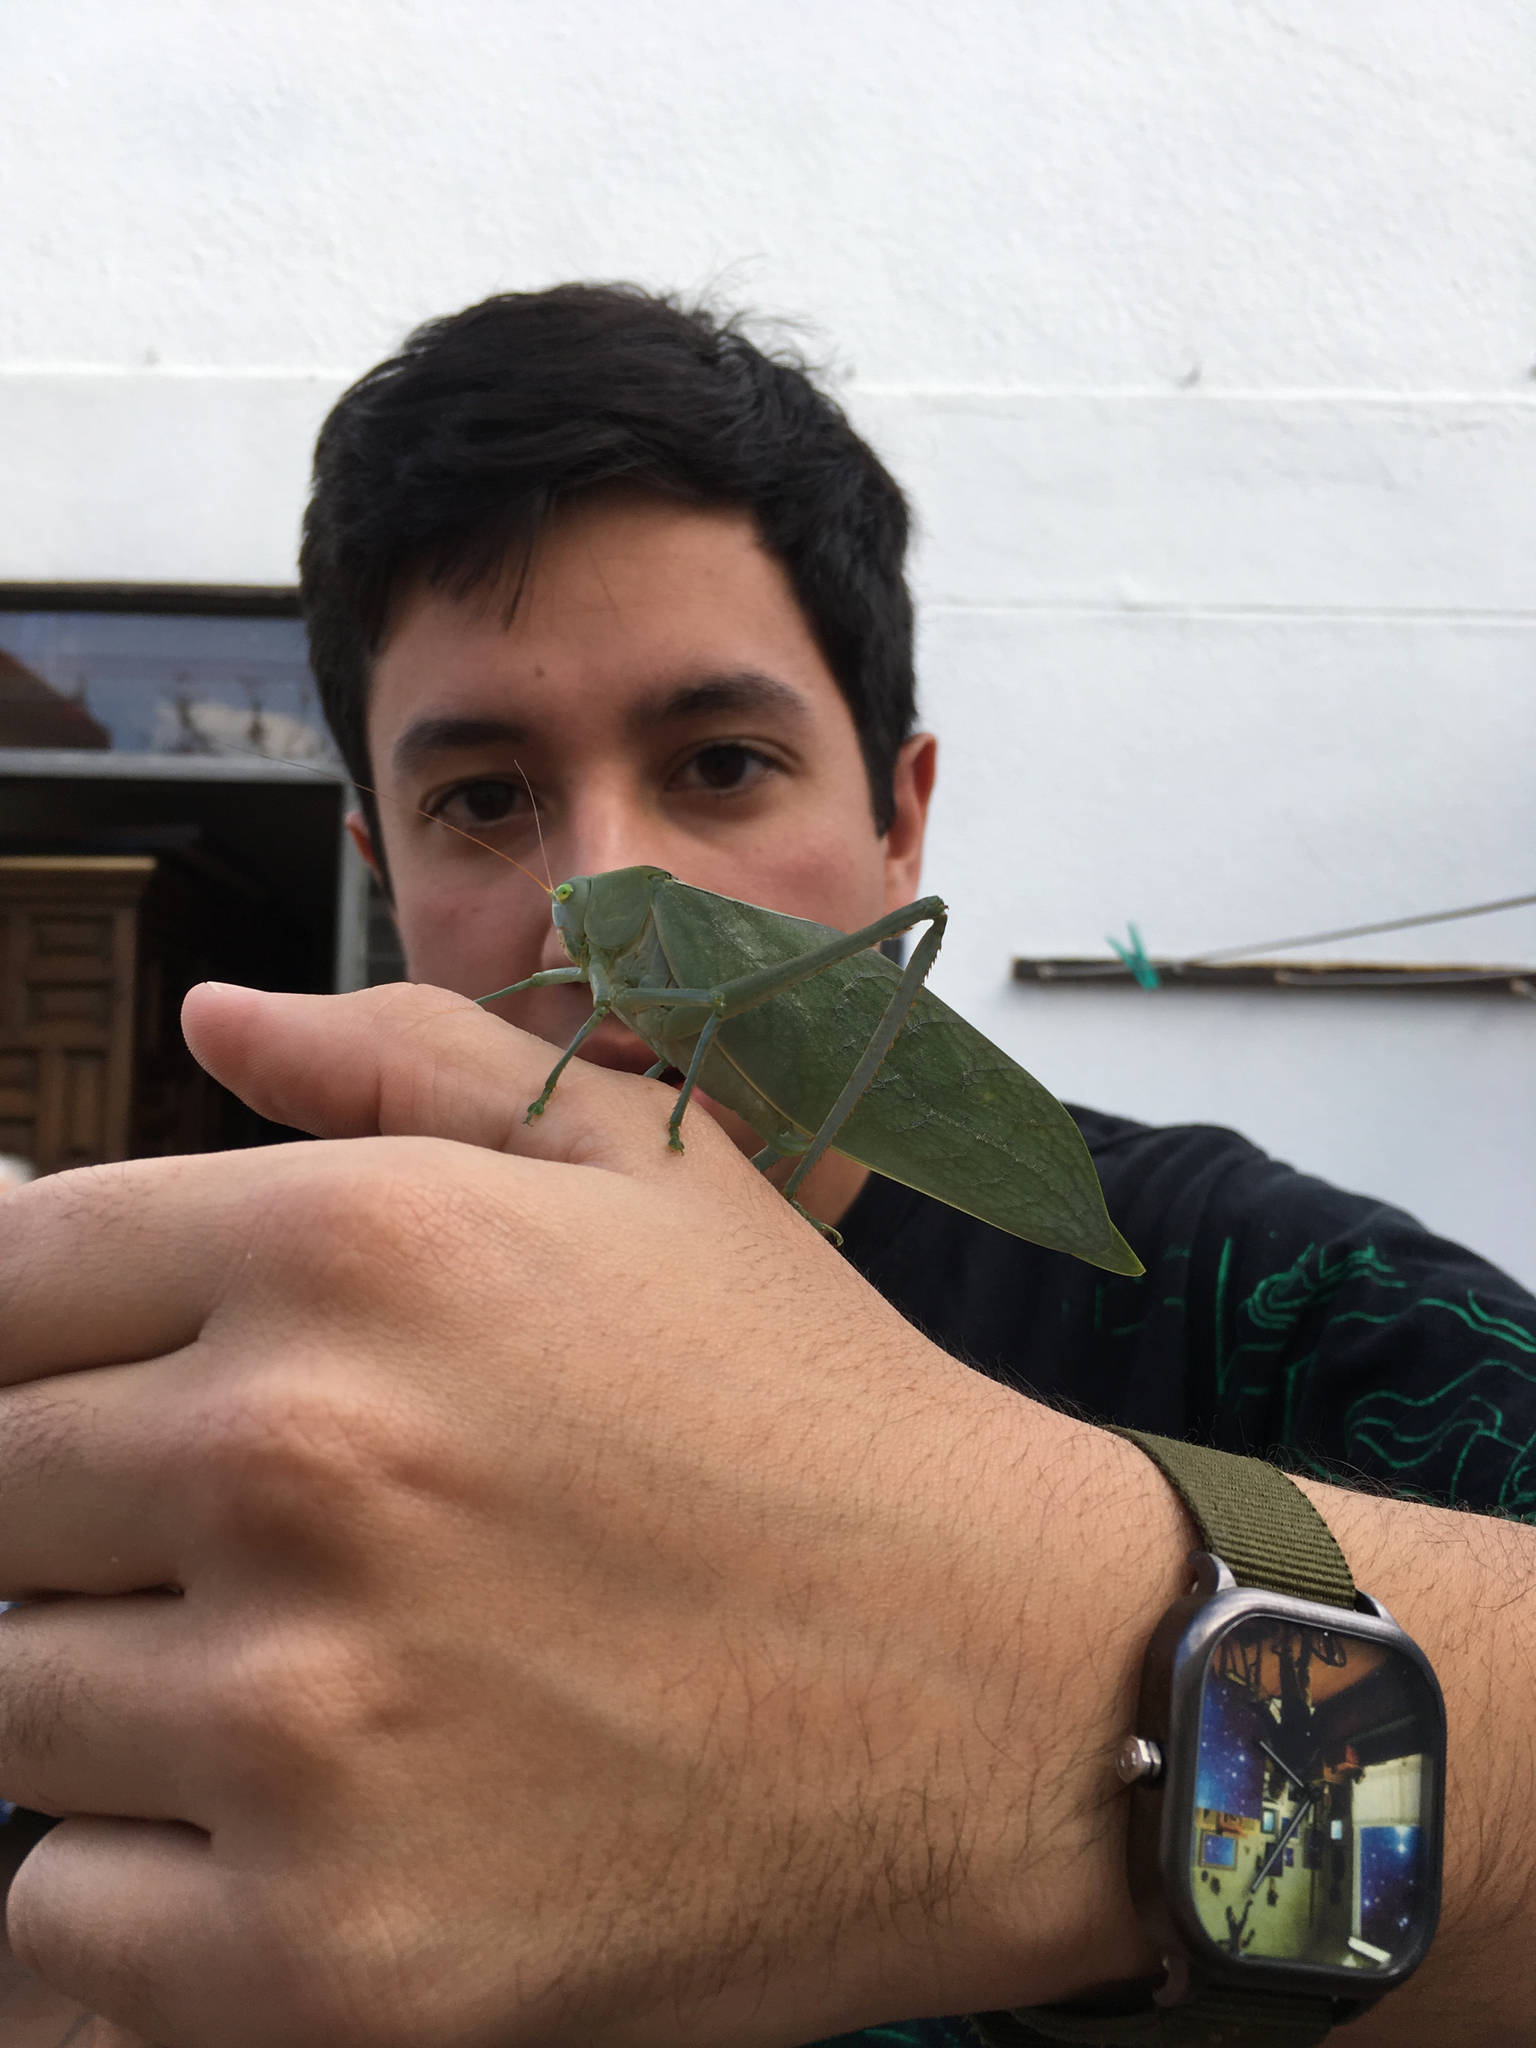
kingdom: Animalia
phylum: Arthropoda
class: Insecta
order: Orthoptera
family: Tettigoniidae
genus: Stilpnochlora
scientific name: Stilpnochlora azteca
